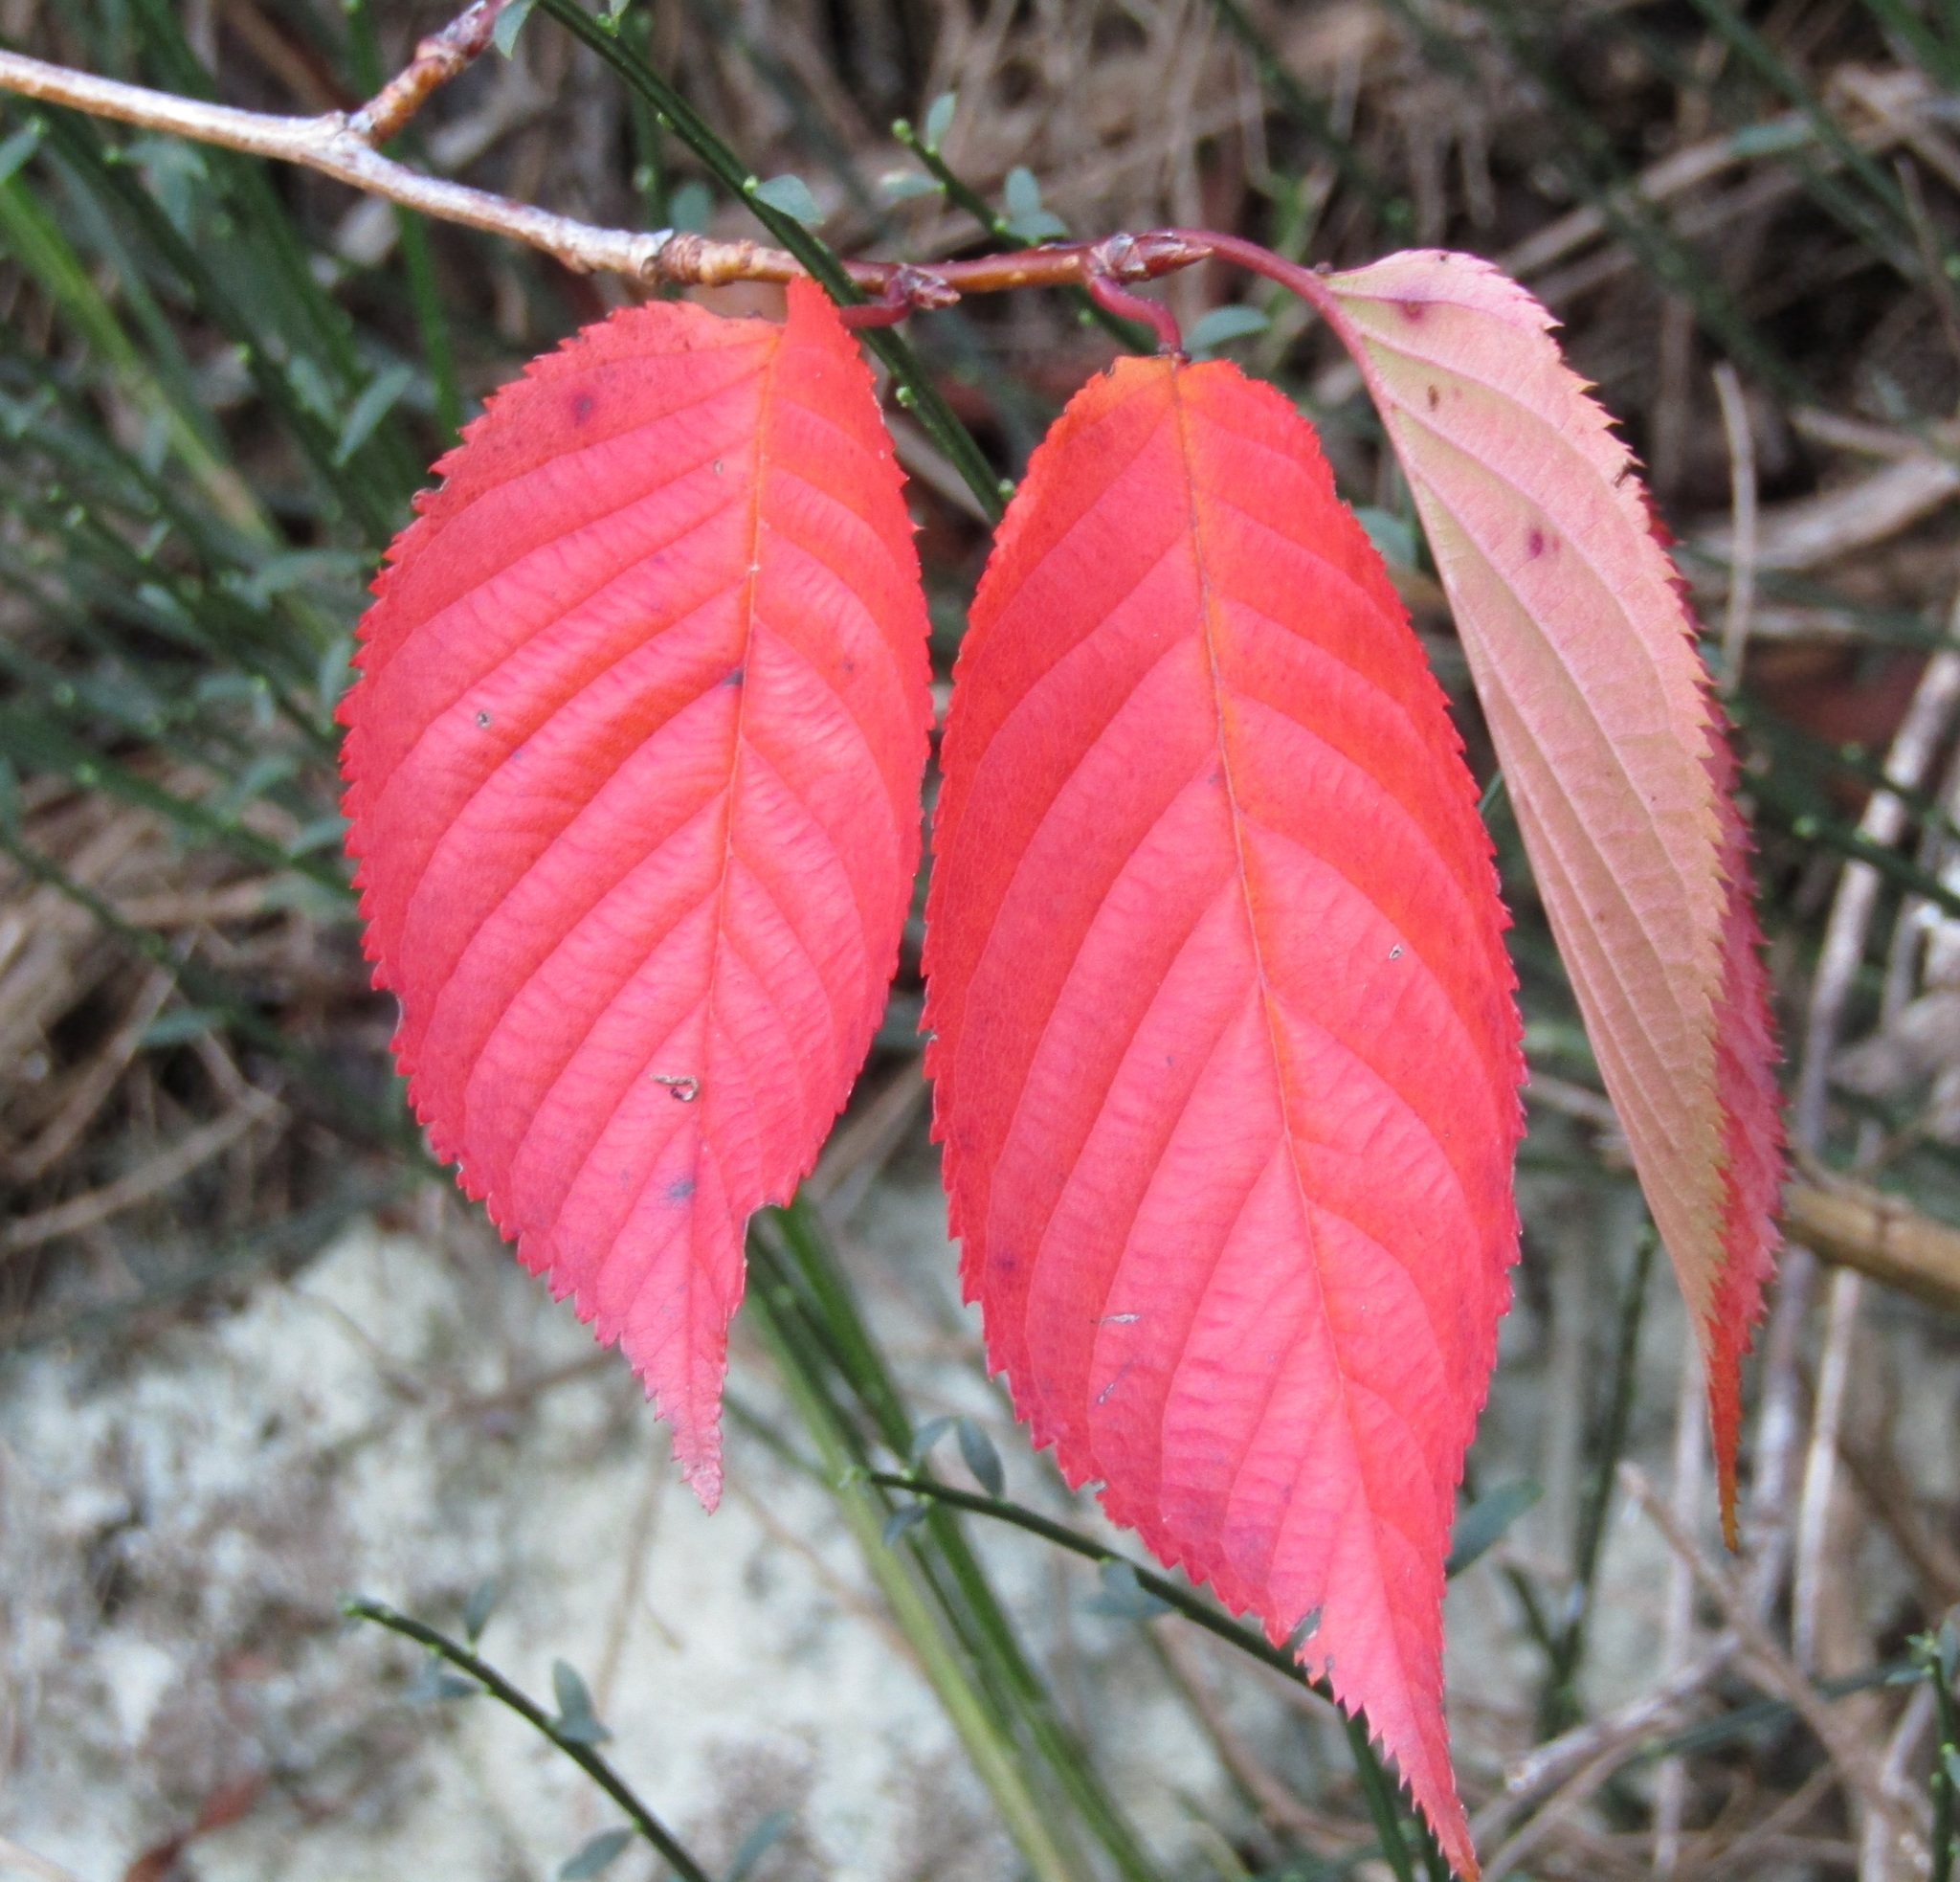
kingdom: Plantae
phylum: Tracheophyta
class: Magnoliopsida
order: Rosales
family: Rosaceae
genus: Prunus
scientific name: Prunus serrulata
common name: Japanese cherry
